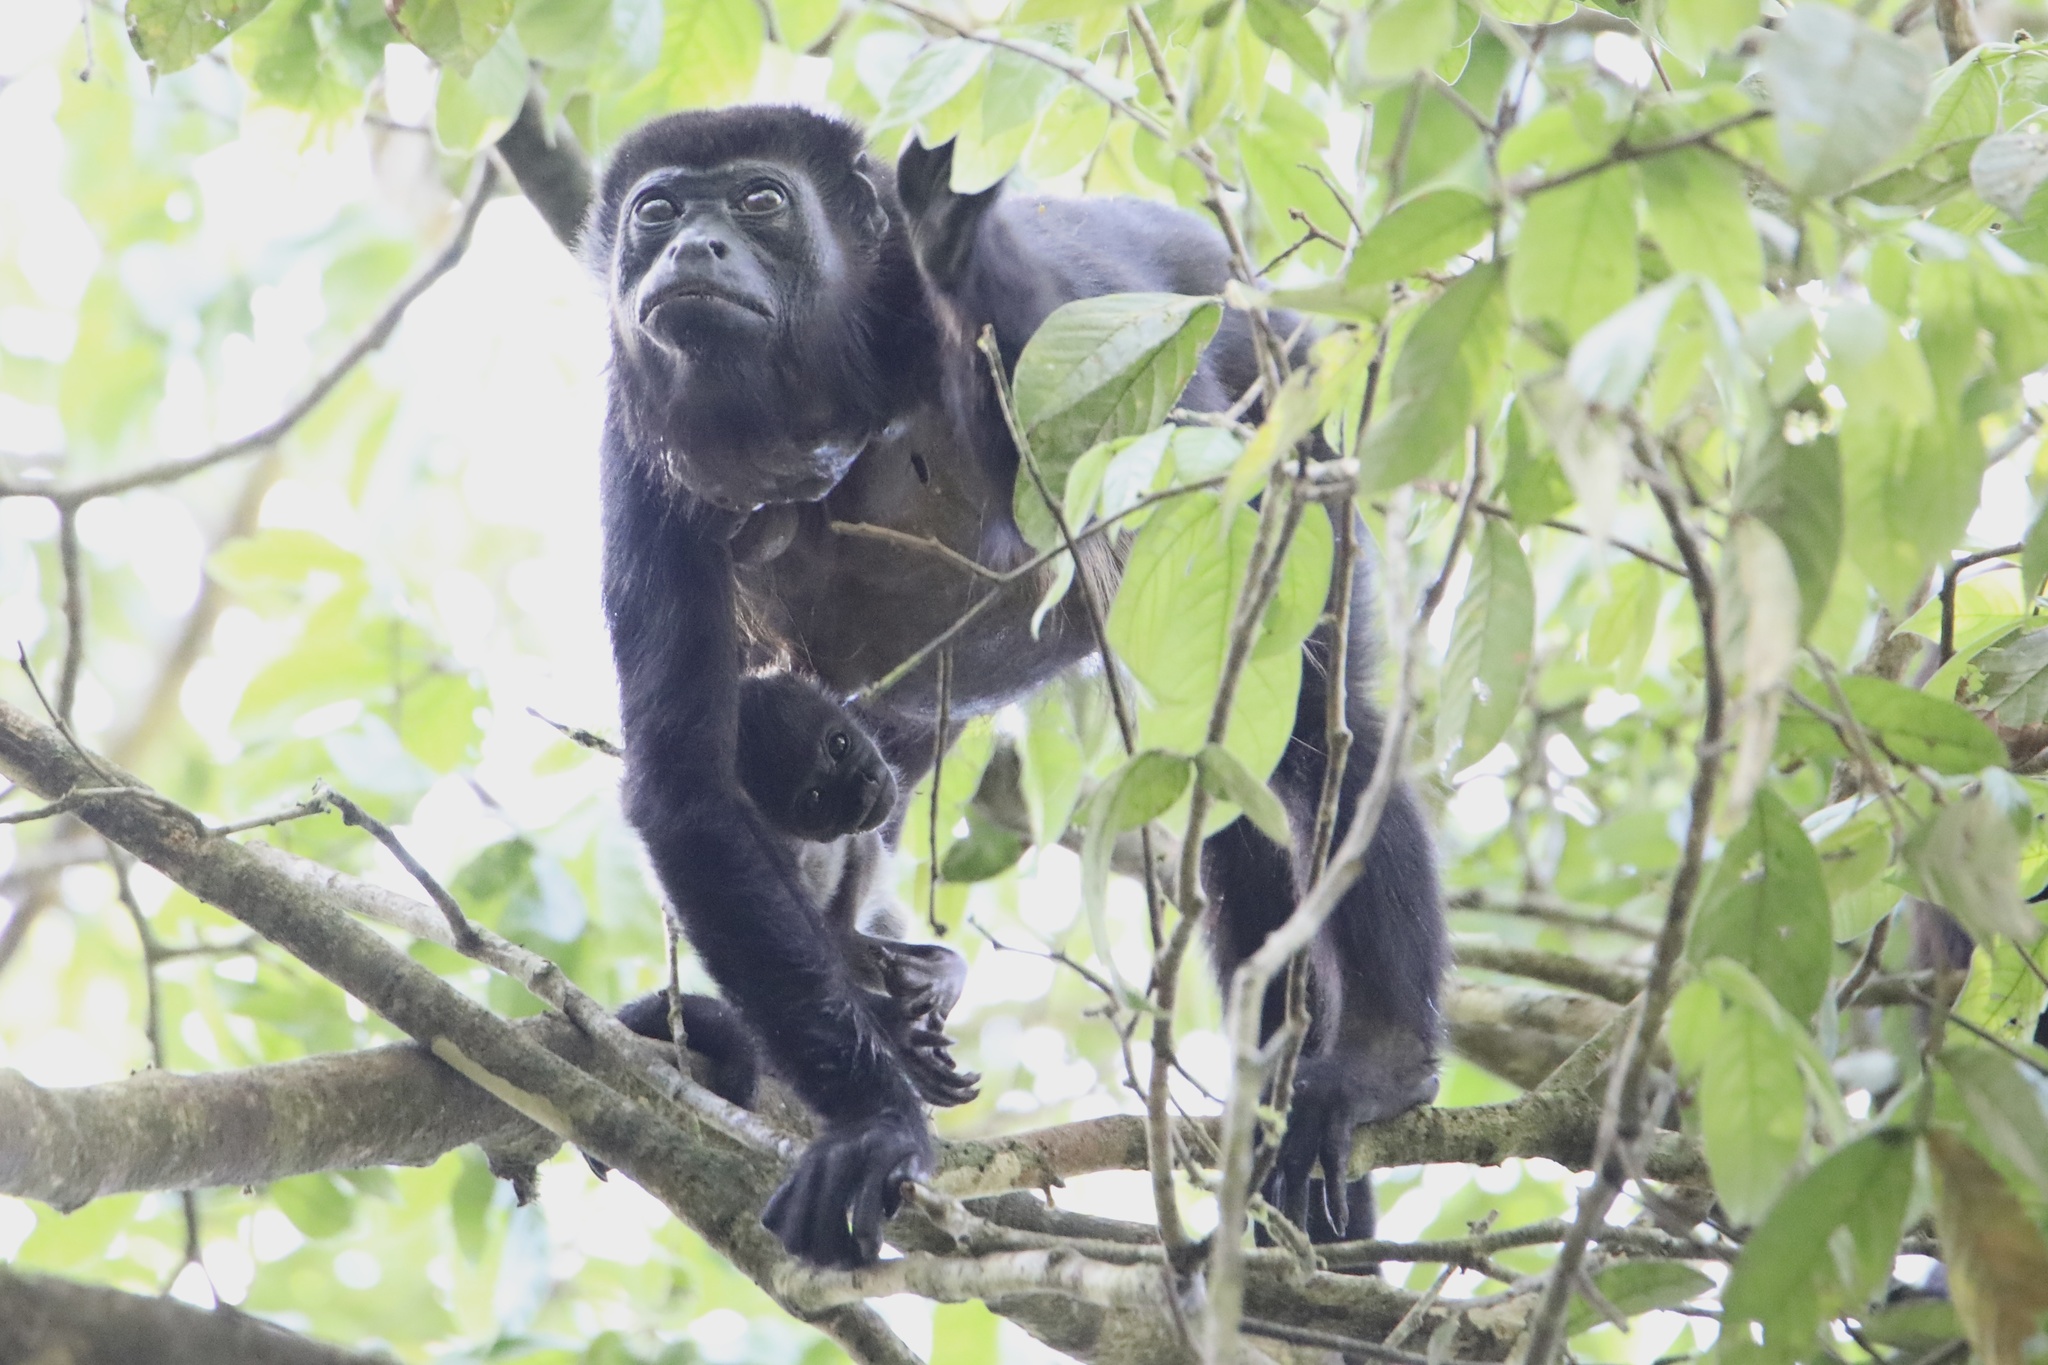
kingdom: Animalia
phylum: Chordata
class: Mammalia
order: Primates
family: Atelidae
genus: Alouatta
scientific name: Alouatta palliata
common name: Mantled howler
